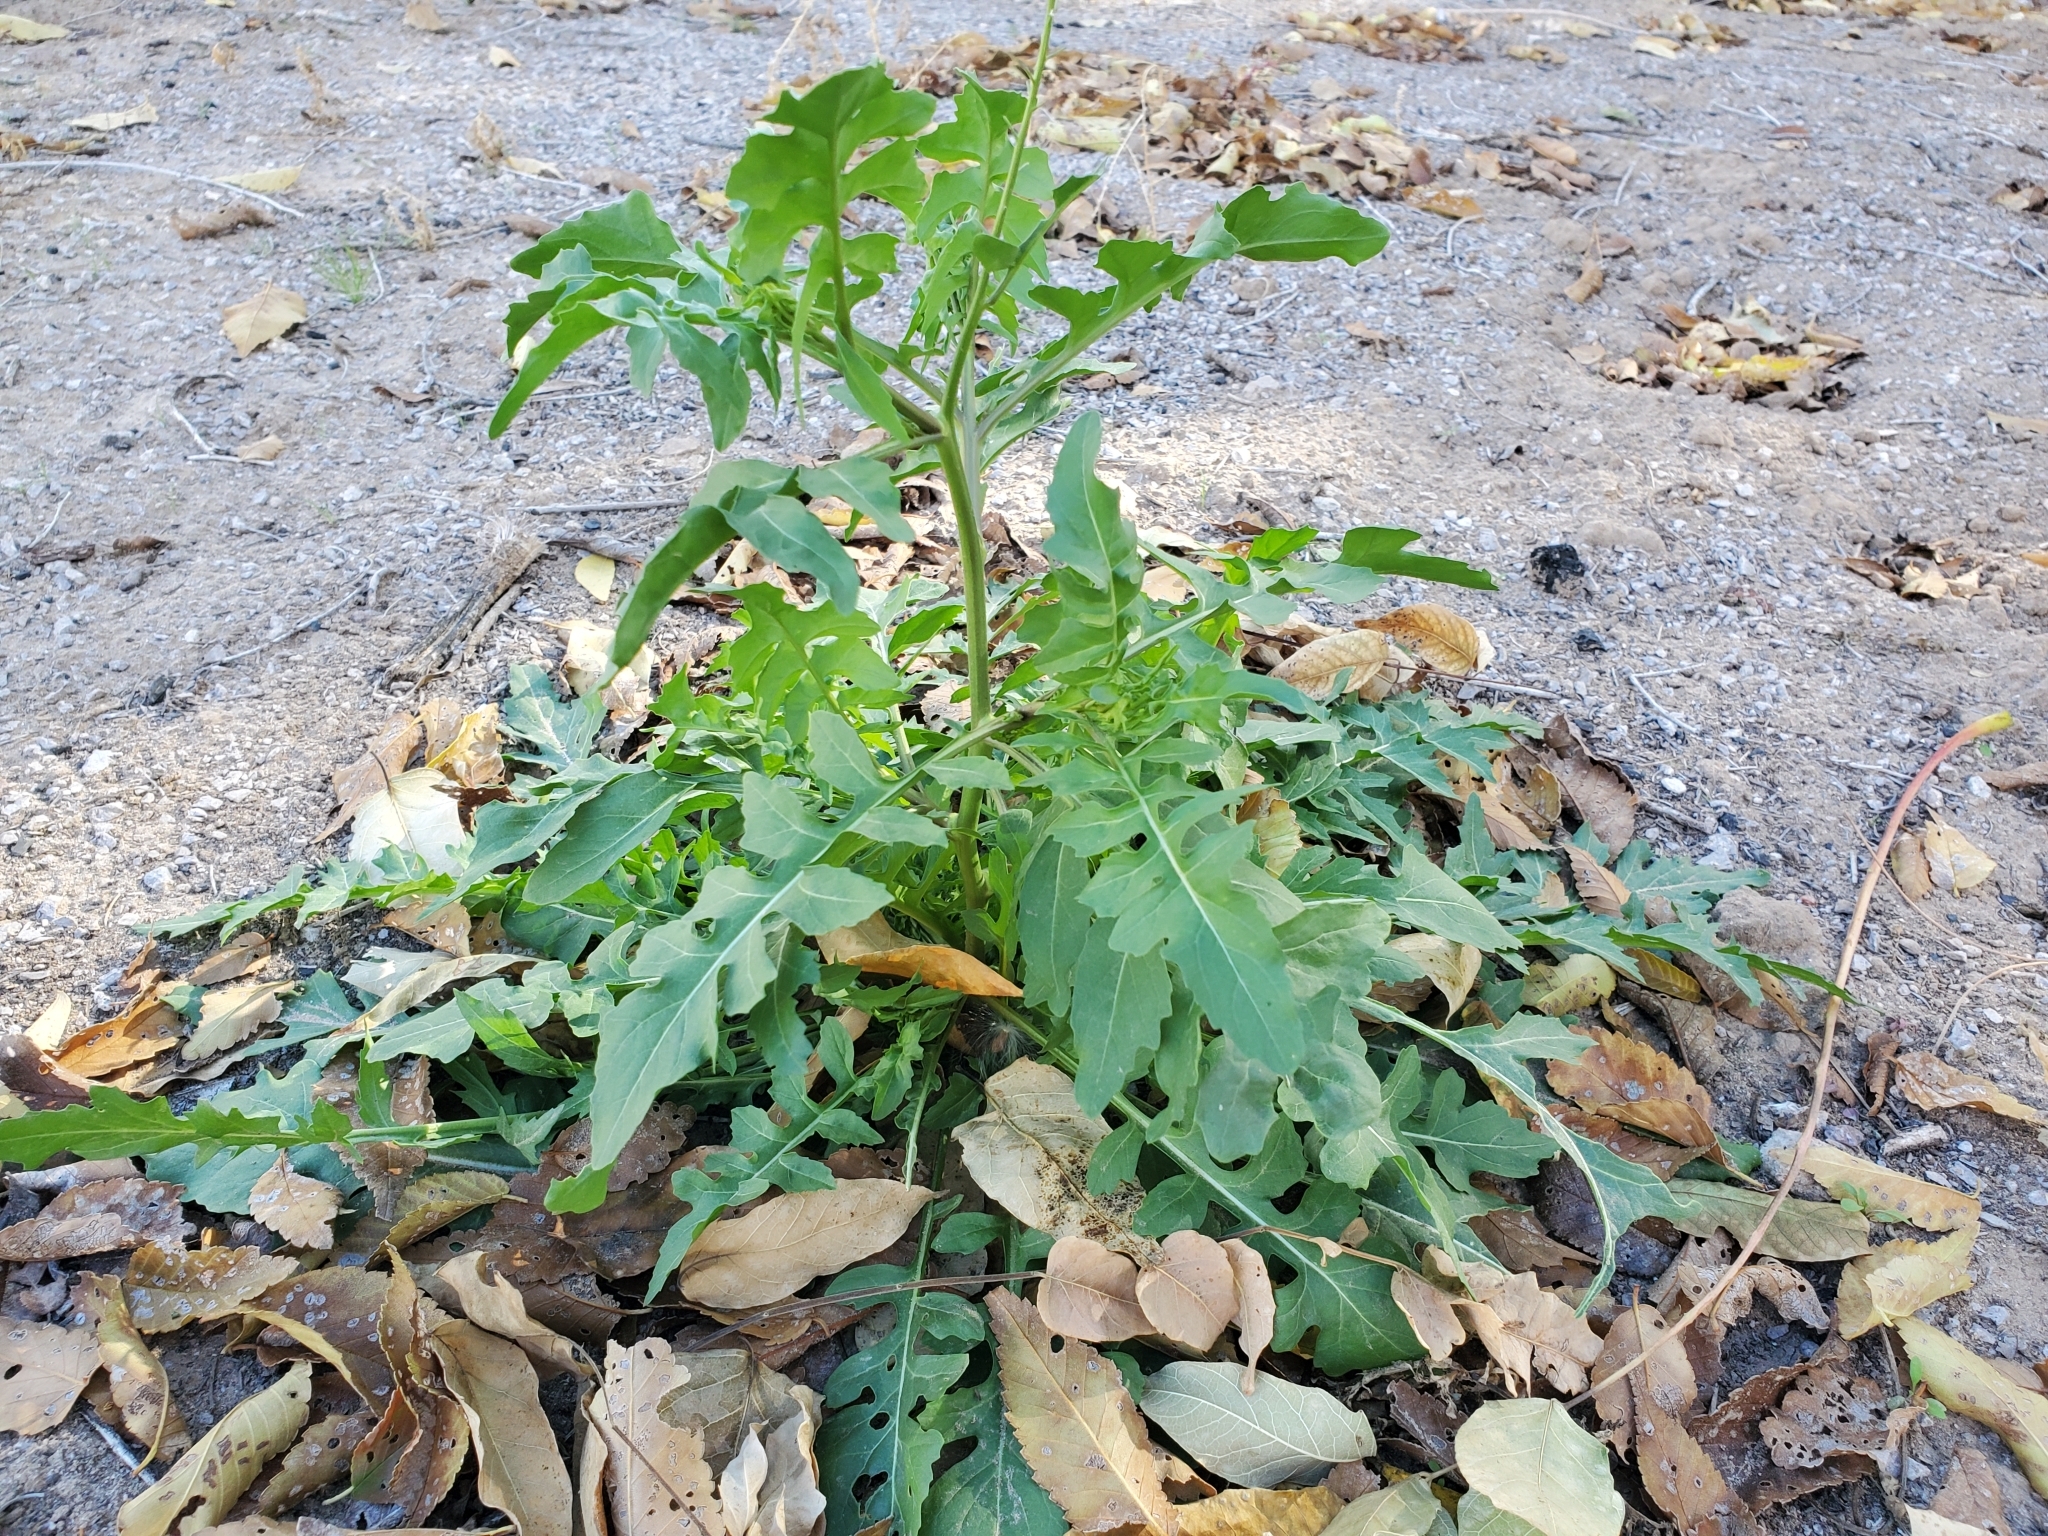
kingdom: Plantae
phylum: Tracheophyta
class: Magnoliopsida
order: Brassicales
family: Brassicaceae
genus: Sisymbrium
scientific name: Sisymbrium irio
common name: London rocket
